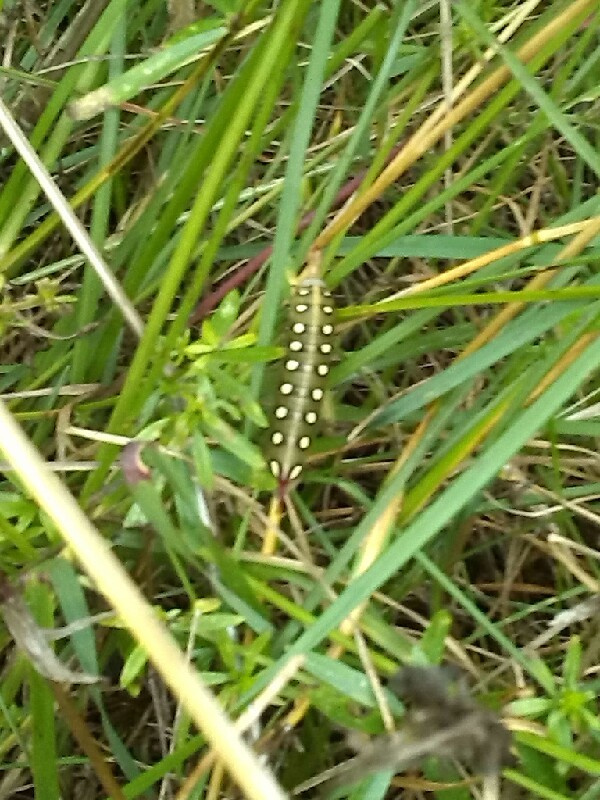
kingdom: Animalia
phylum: Arthropoda
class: Insecta
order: Lepidoptera
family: Sphingidae
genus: Hyles
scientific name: Hyles gallii
